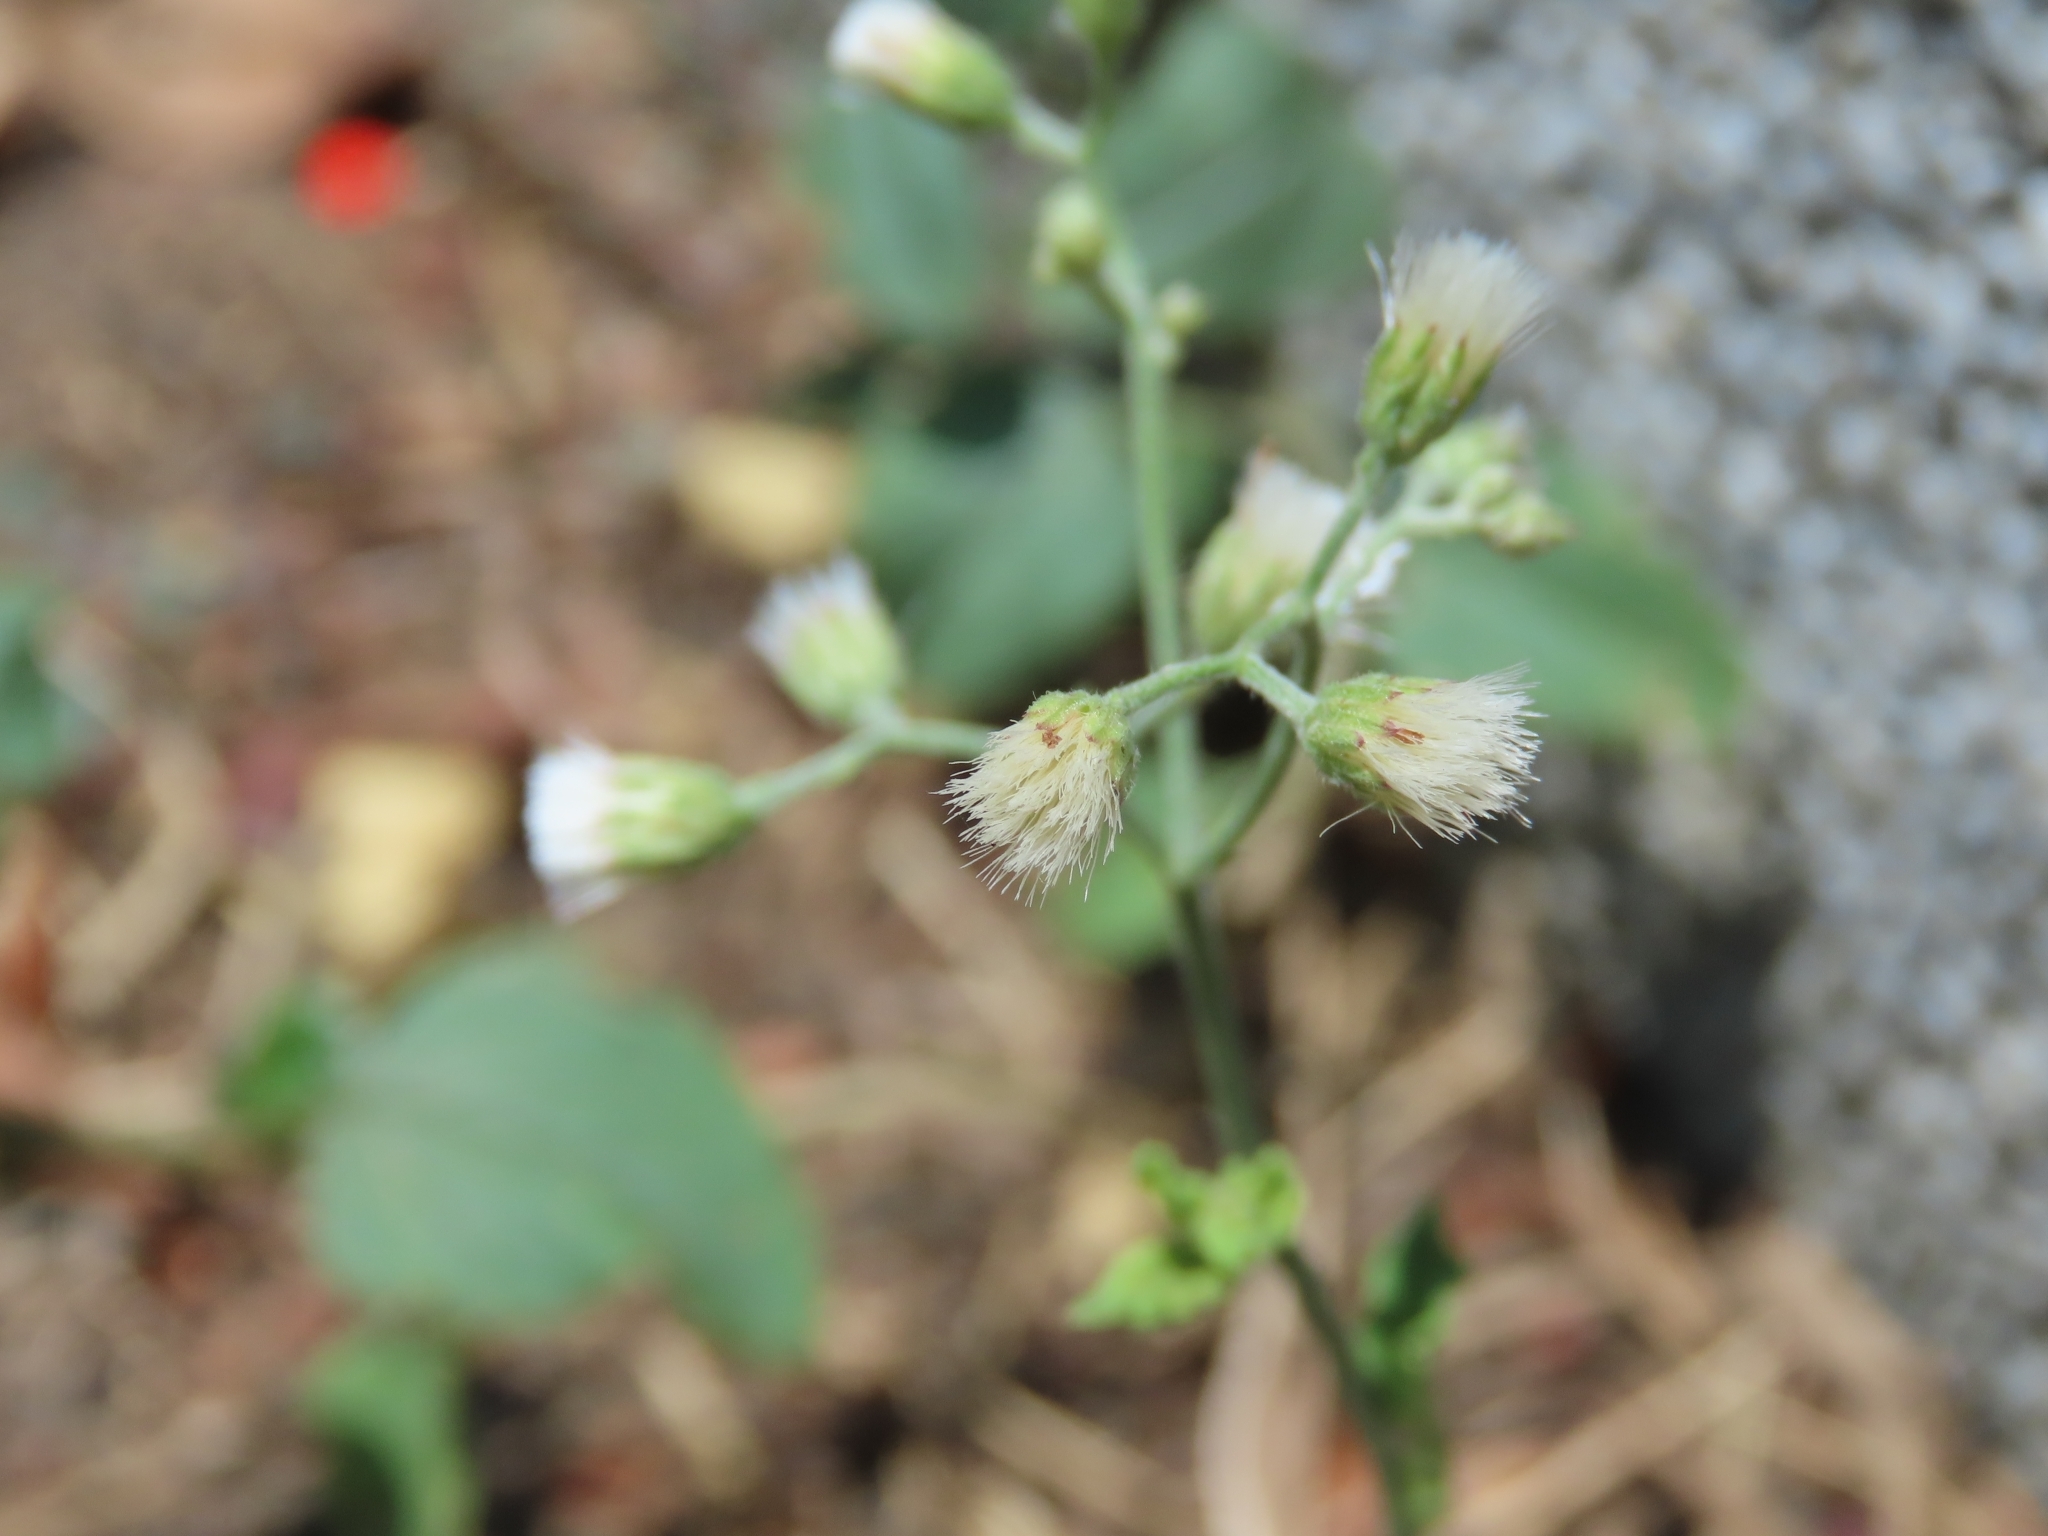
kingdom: Plantae
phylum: Tracheophyta
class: Magnoliopsida
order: Asterales
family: Asteraceae
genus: Cyanthillium
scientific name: Cyanthillium cinereum
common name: Little ironweed
